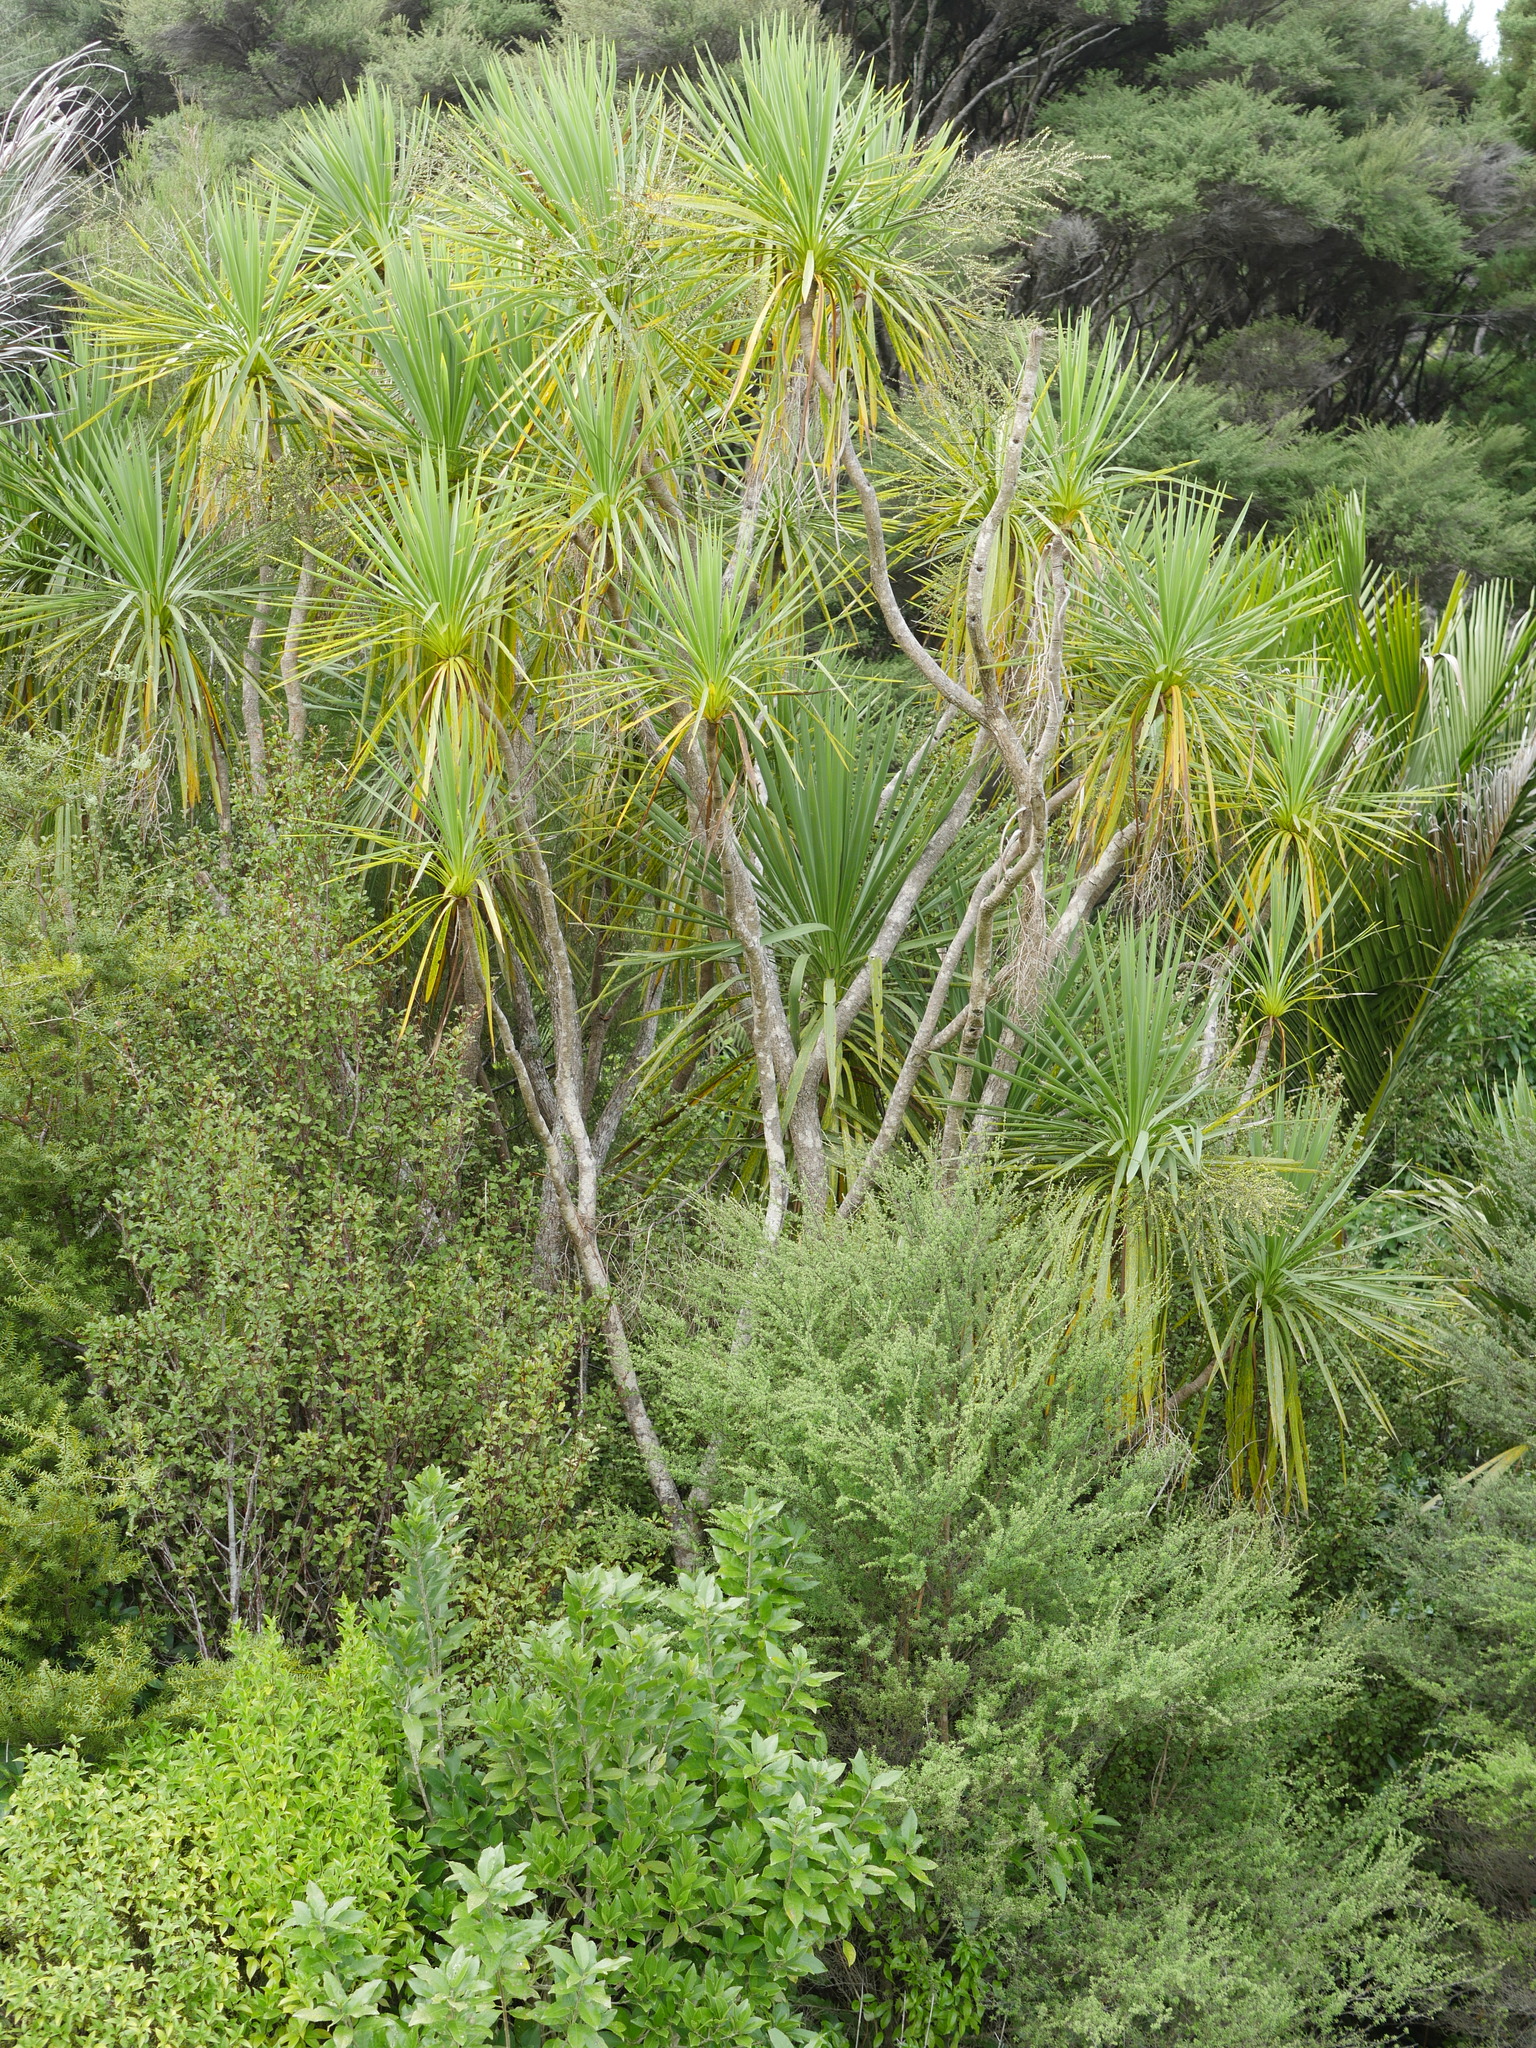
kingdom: Plantae
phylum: Tracheophyta
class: Liliopsida
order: Asparagales
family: Asparagaceae
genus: Cordyline
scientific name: Cordyline australis
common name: Cabbage-palm
